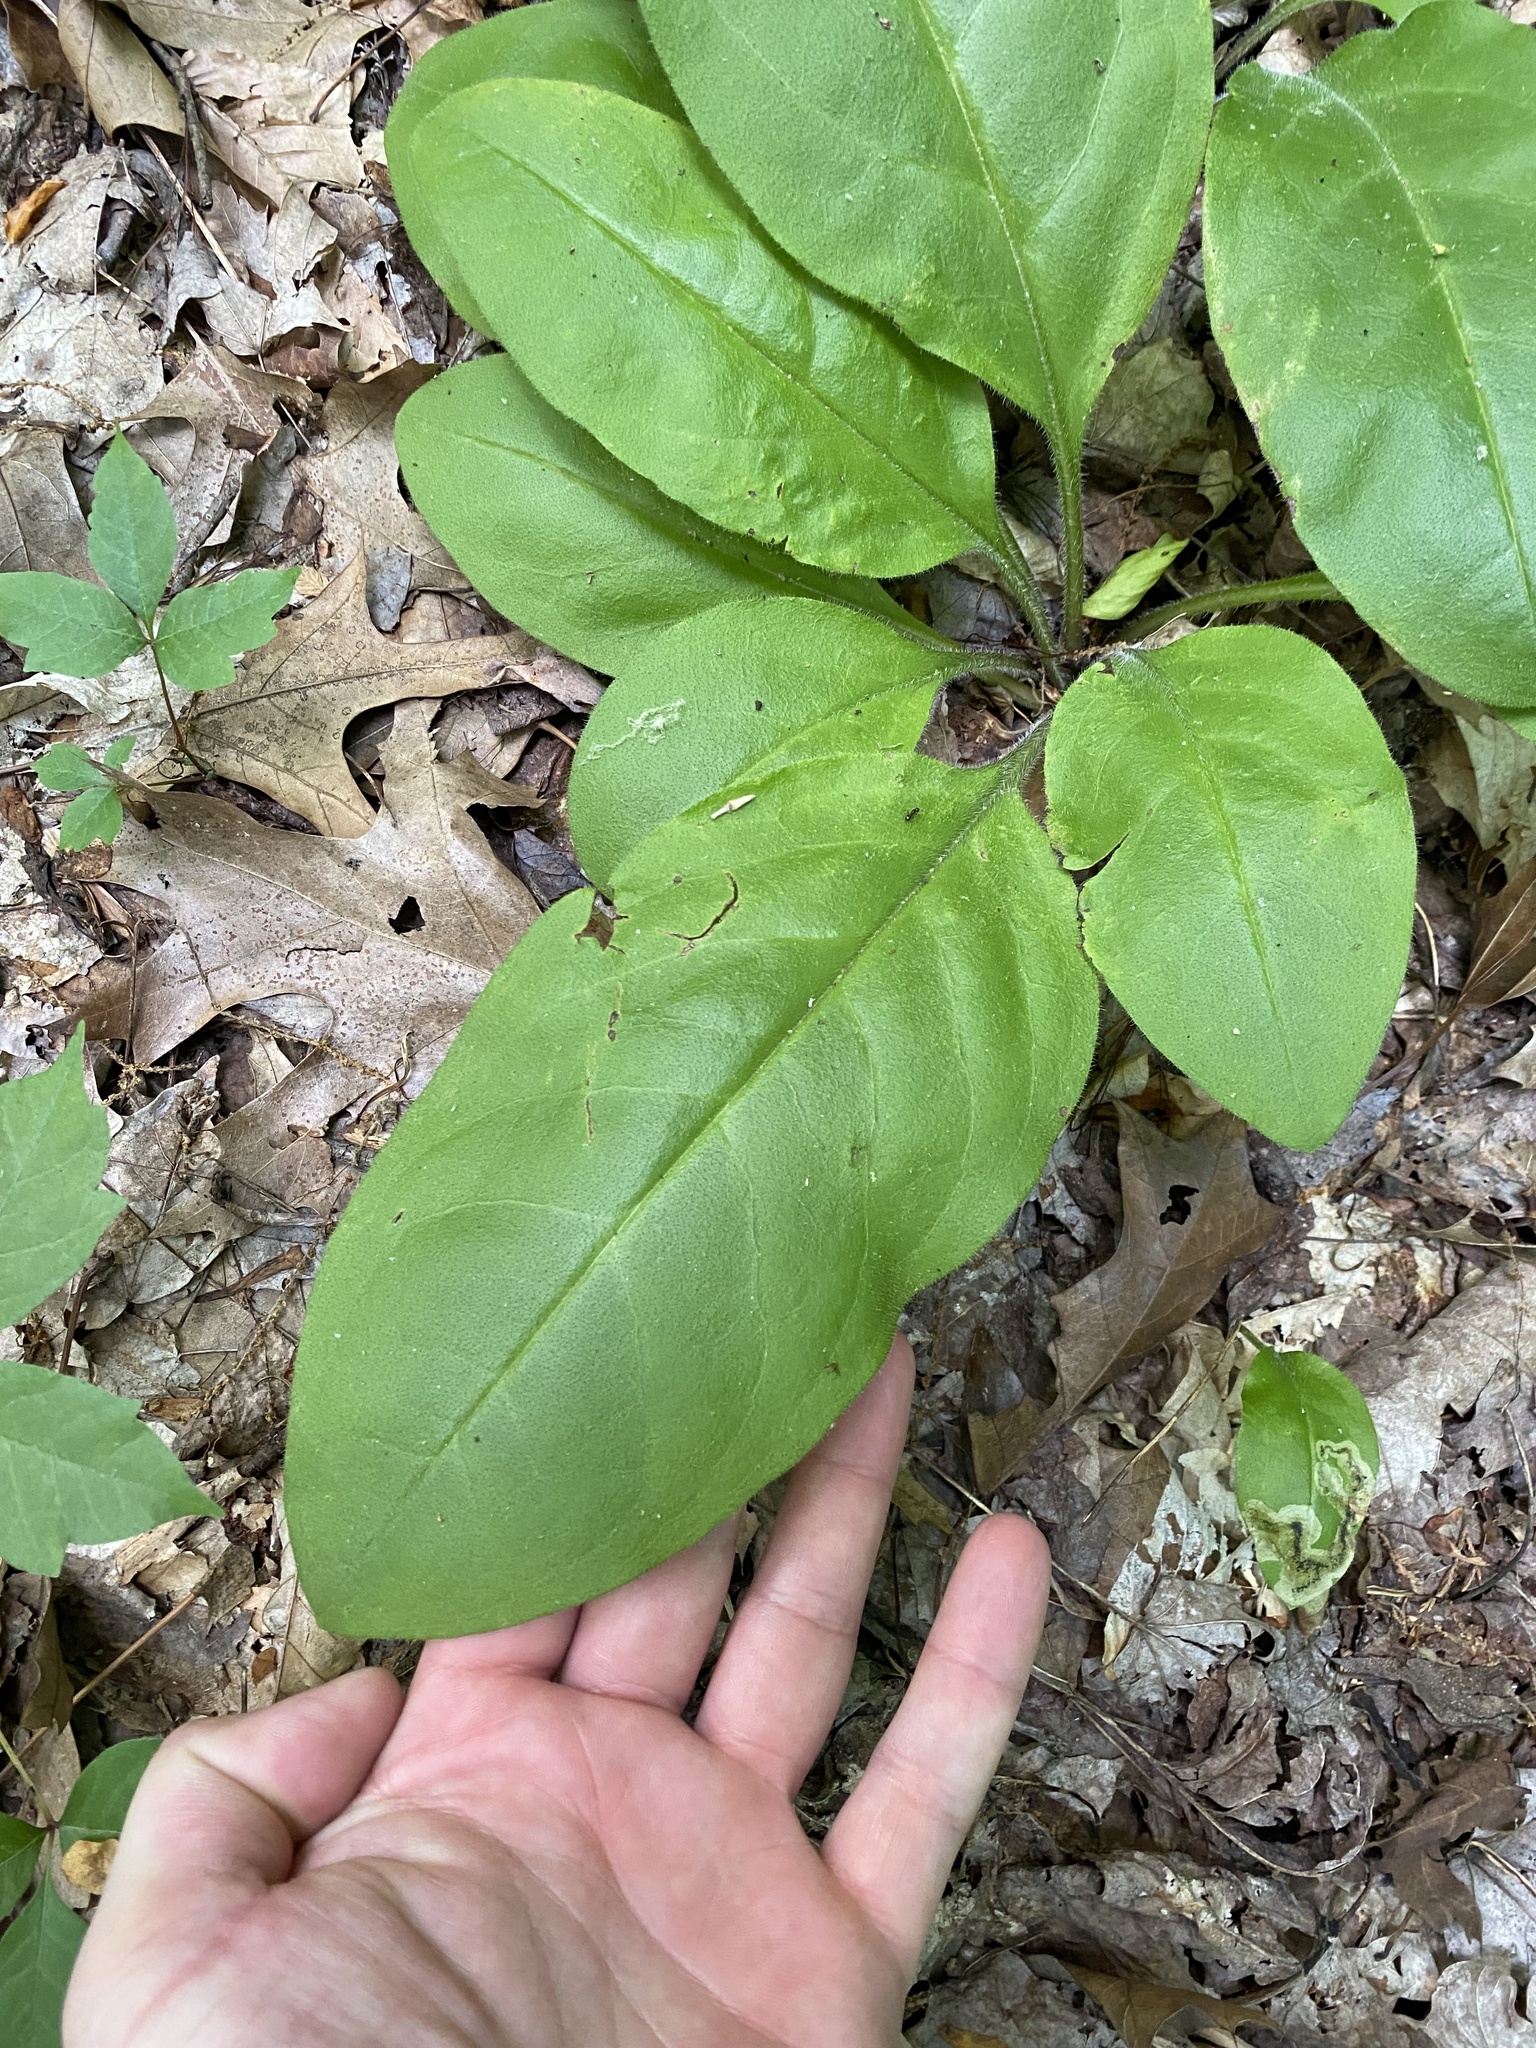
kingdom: Plantae
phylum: Tracheophyta
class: Magnoliopsida
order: Boraginales
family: Boraginaceae
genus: Andersonglossum
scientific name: Andersonglossum virginianum
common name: Wild comfrey
